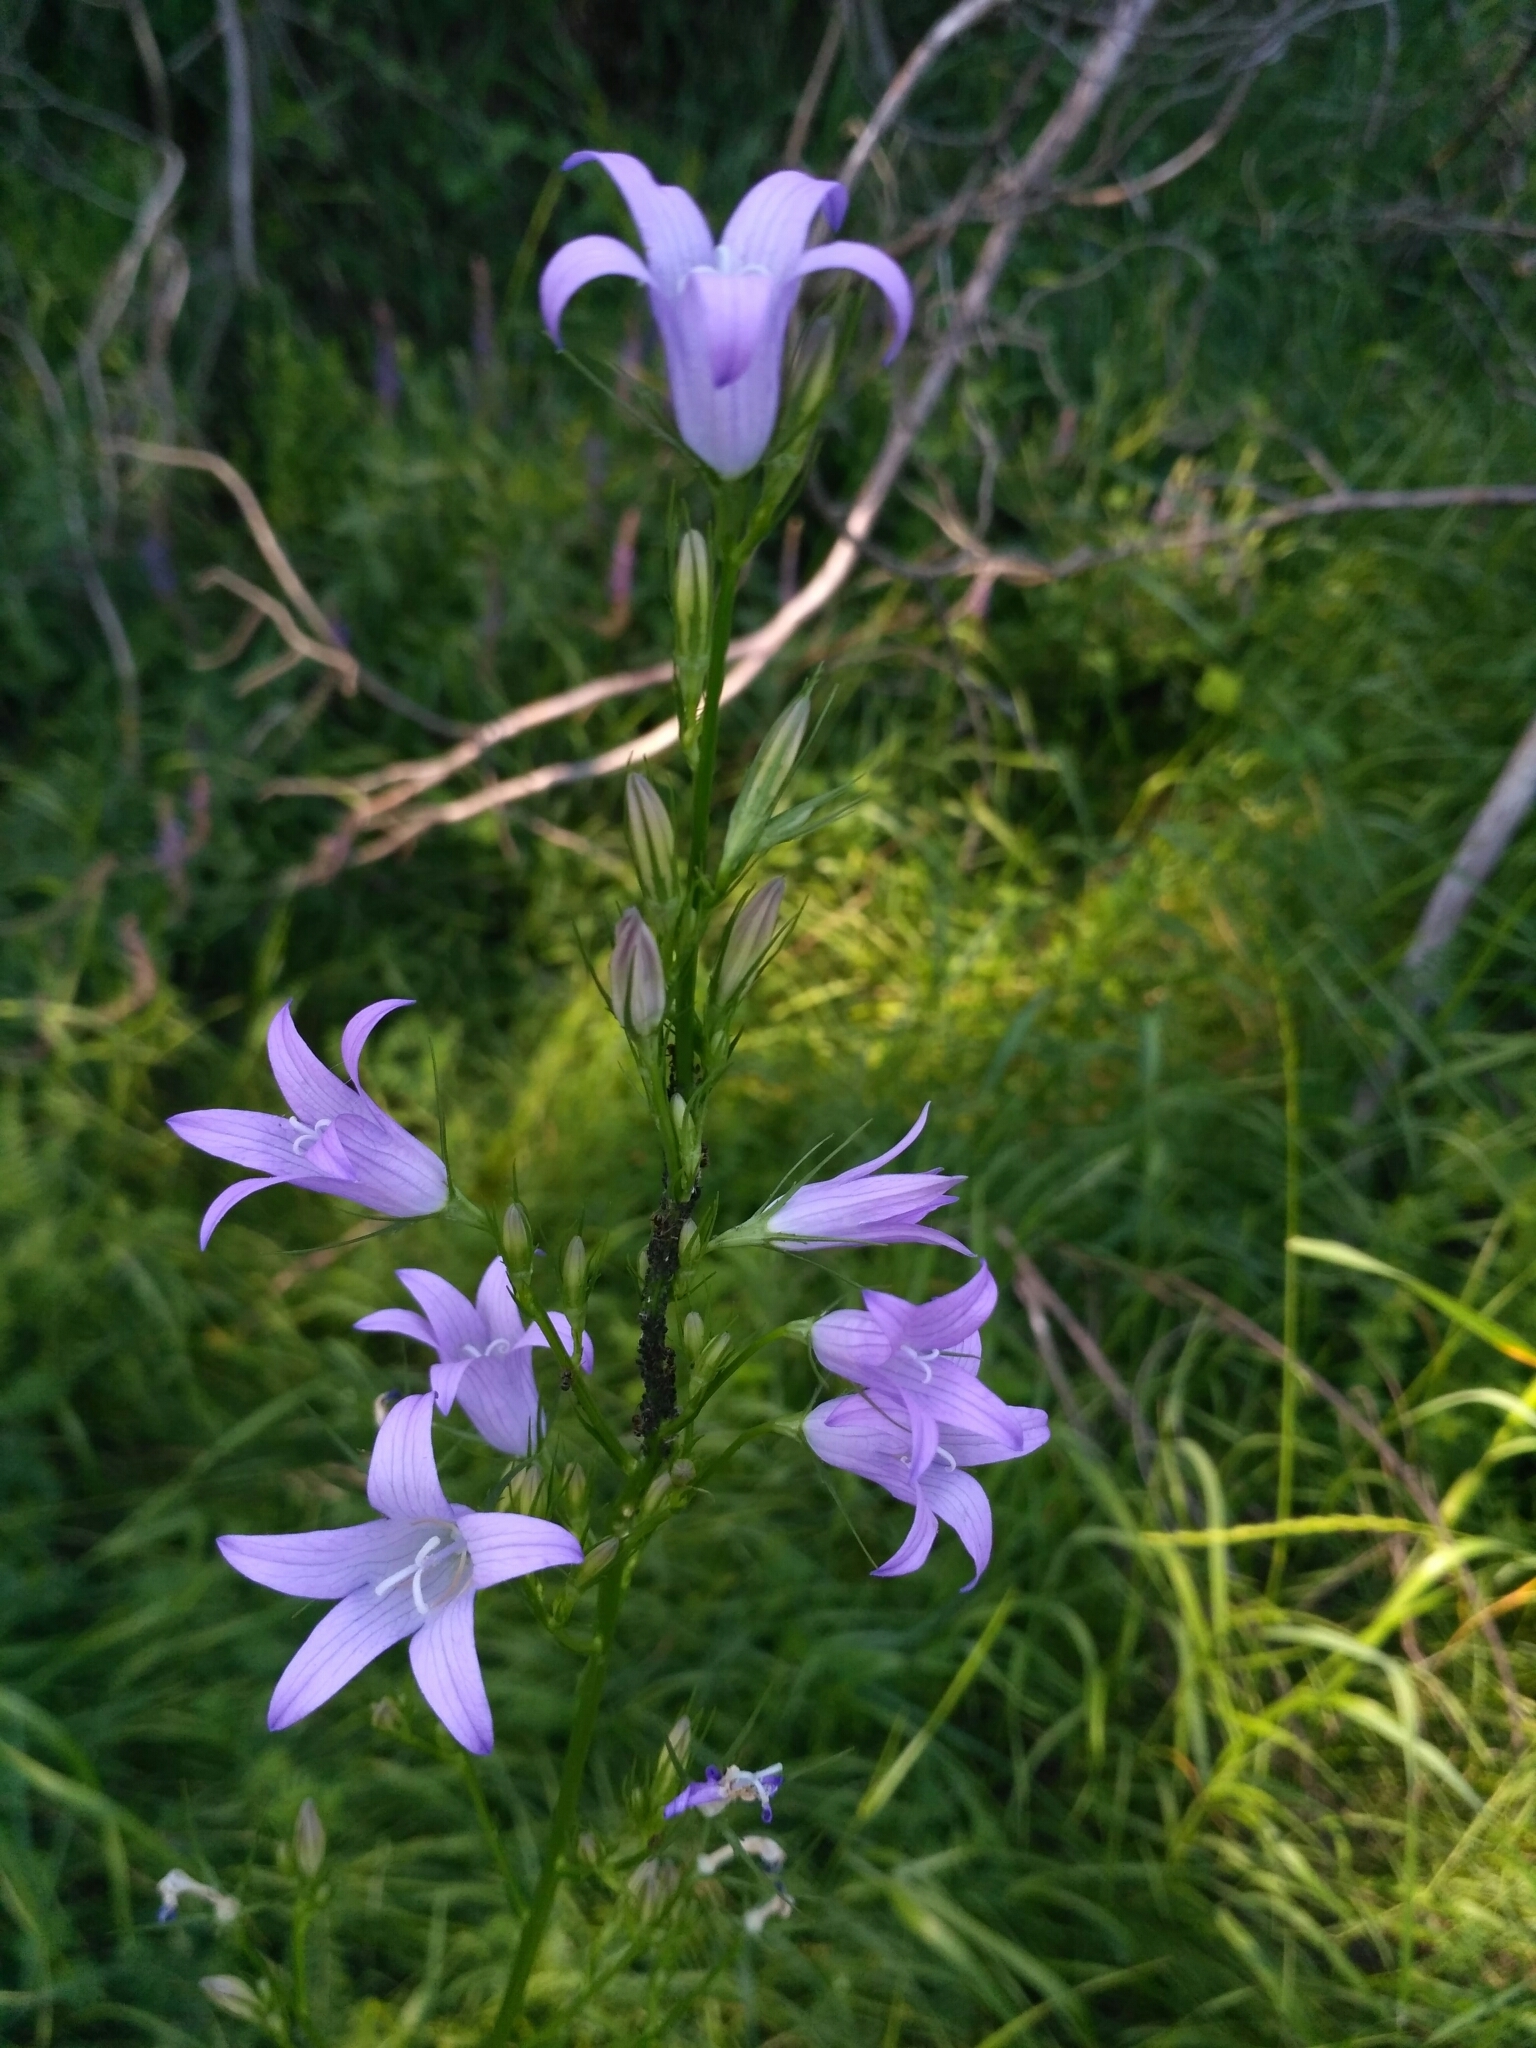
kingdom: Plantae
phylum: Tracheophyta
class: Magnoliopsida
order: Asterales
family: Campanulaceae
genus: Campanula
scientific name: Campanula rapunculus
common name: Rampion bellflower
